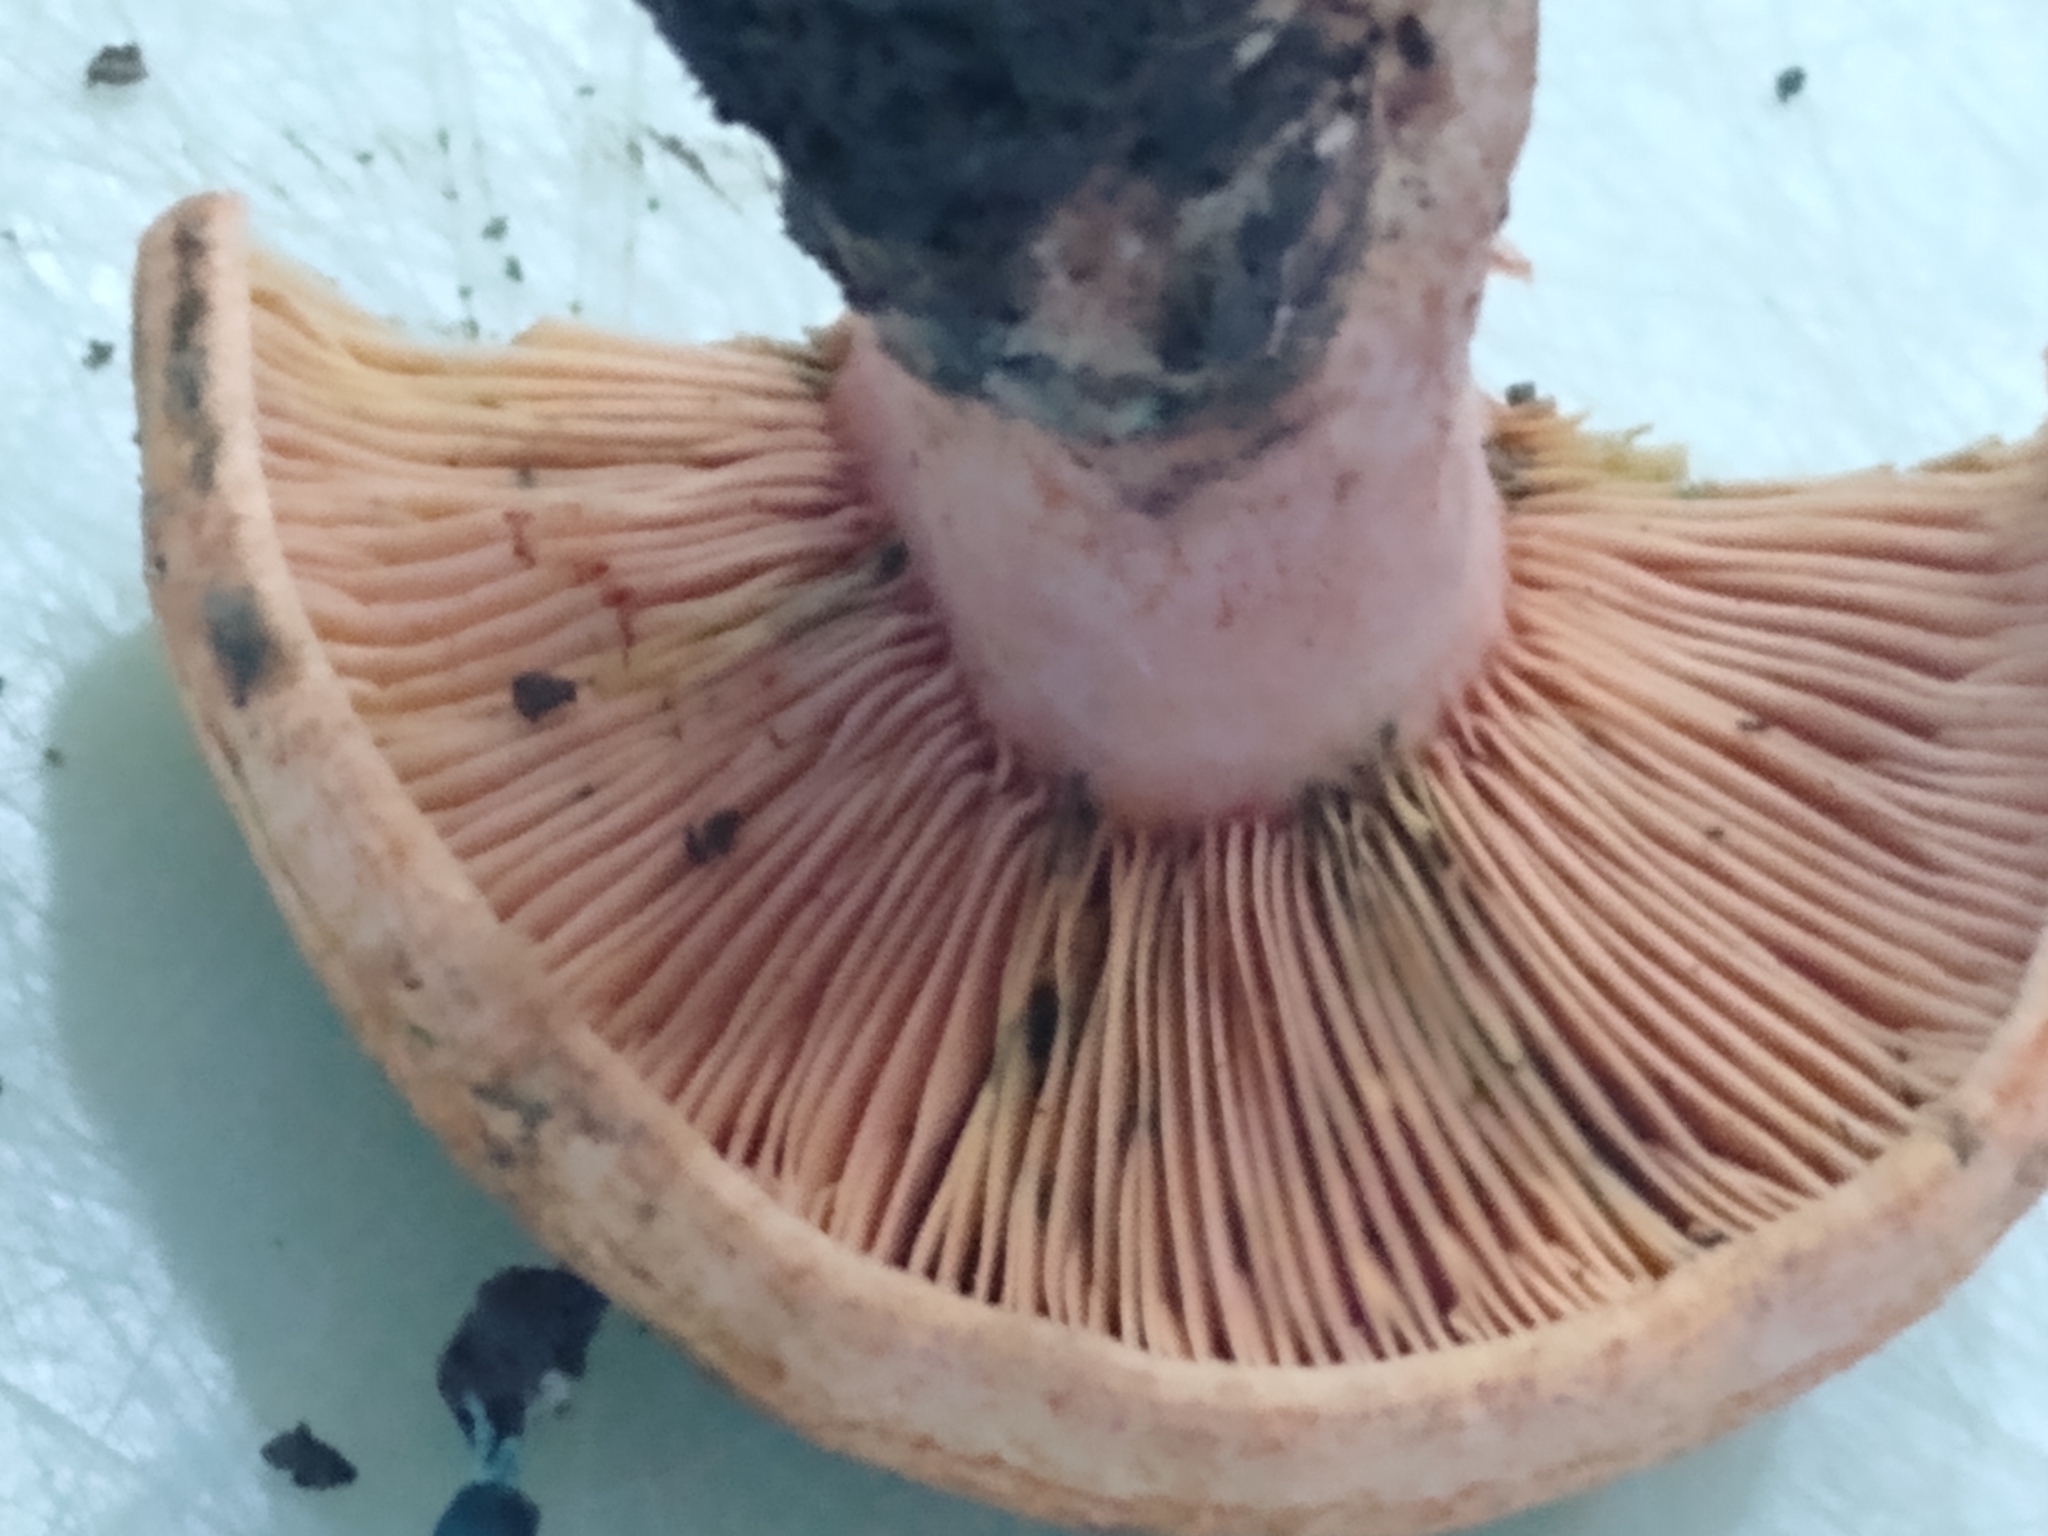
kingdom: Fungi
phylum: Basidiomycota
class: Agaricomycetes
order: Russulales
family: Russulaceae
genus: Lactarius
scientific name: Lactarius rubrilacteus
